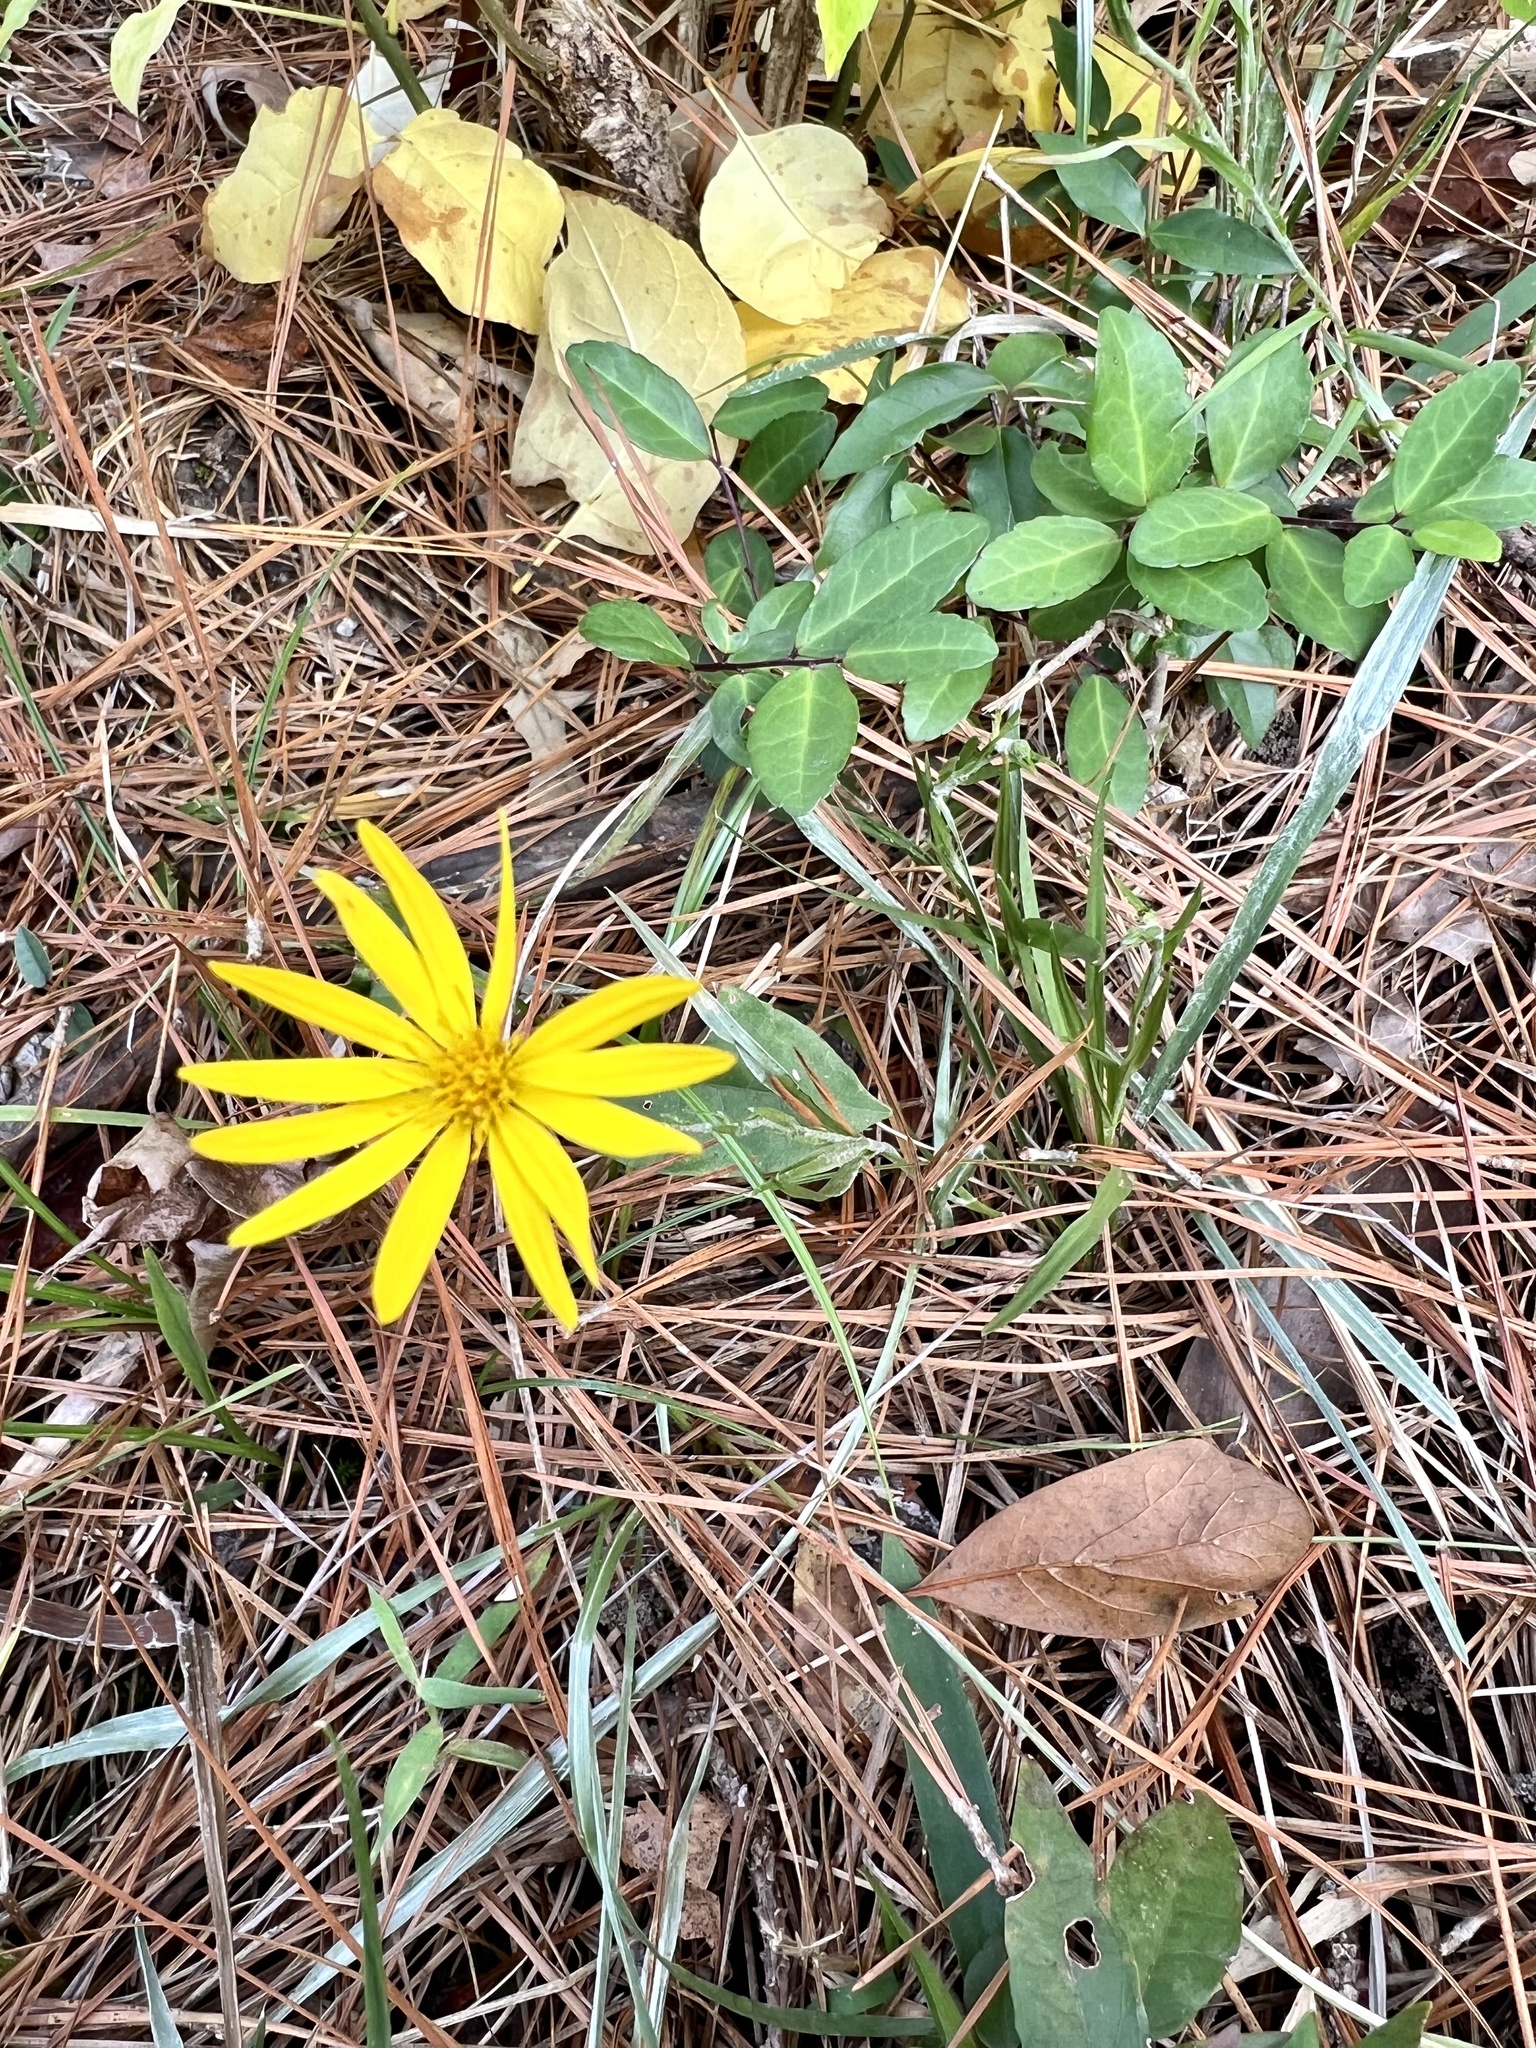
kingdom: Plantae
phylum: Tracheophyta
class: Magnoliopsida
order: Asterales
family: Asteraceae
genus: Pityopsis
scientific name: Pityopsis graminifolia
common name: Grass-leaf golden-aster
